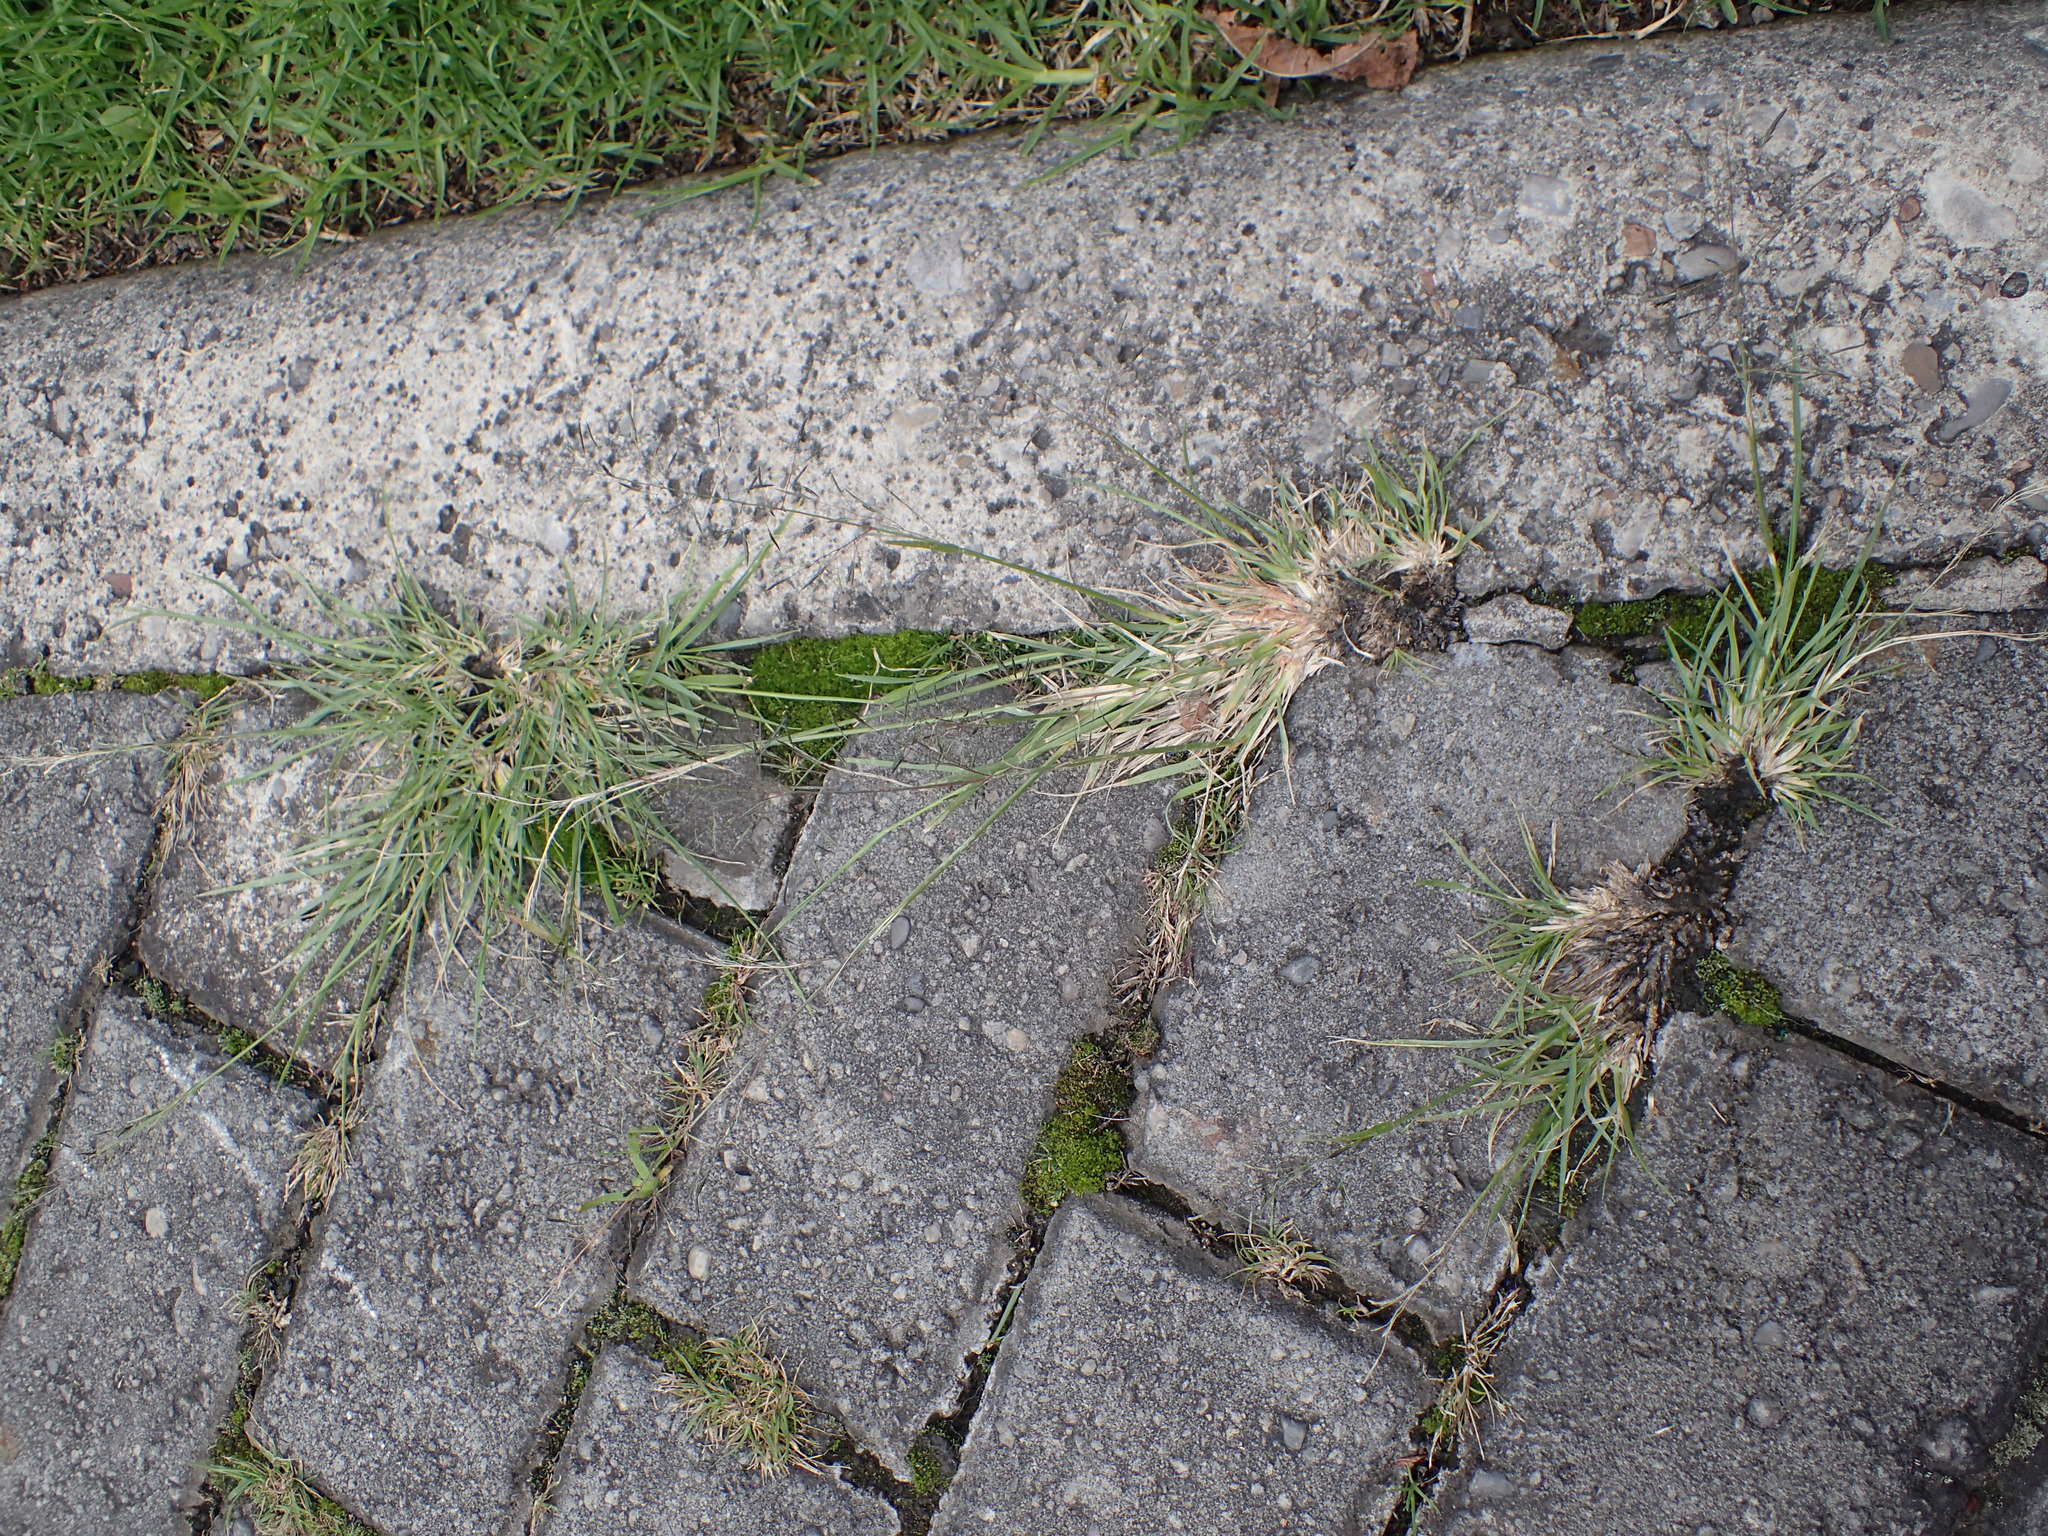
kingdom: Plantae
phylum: Tracheophyta
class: Liliopsida
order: Poales
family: Poaceae
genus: Eragrostis
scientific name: Eragrostis tenuifolia
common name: Elastic grass
